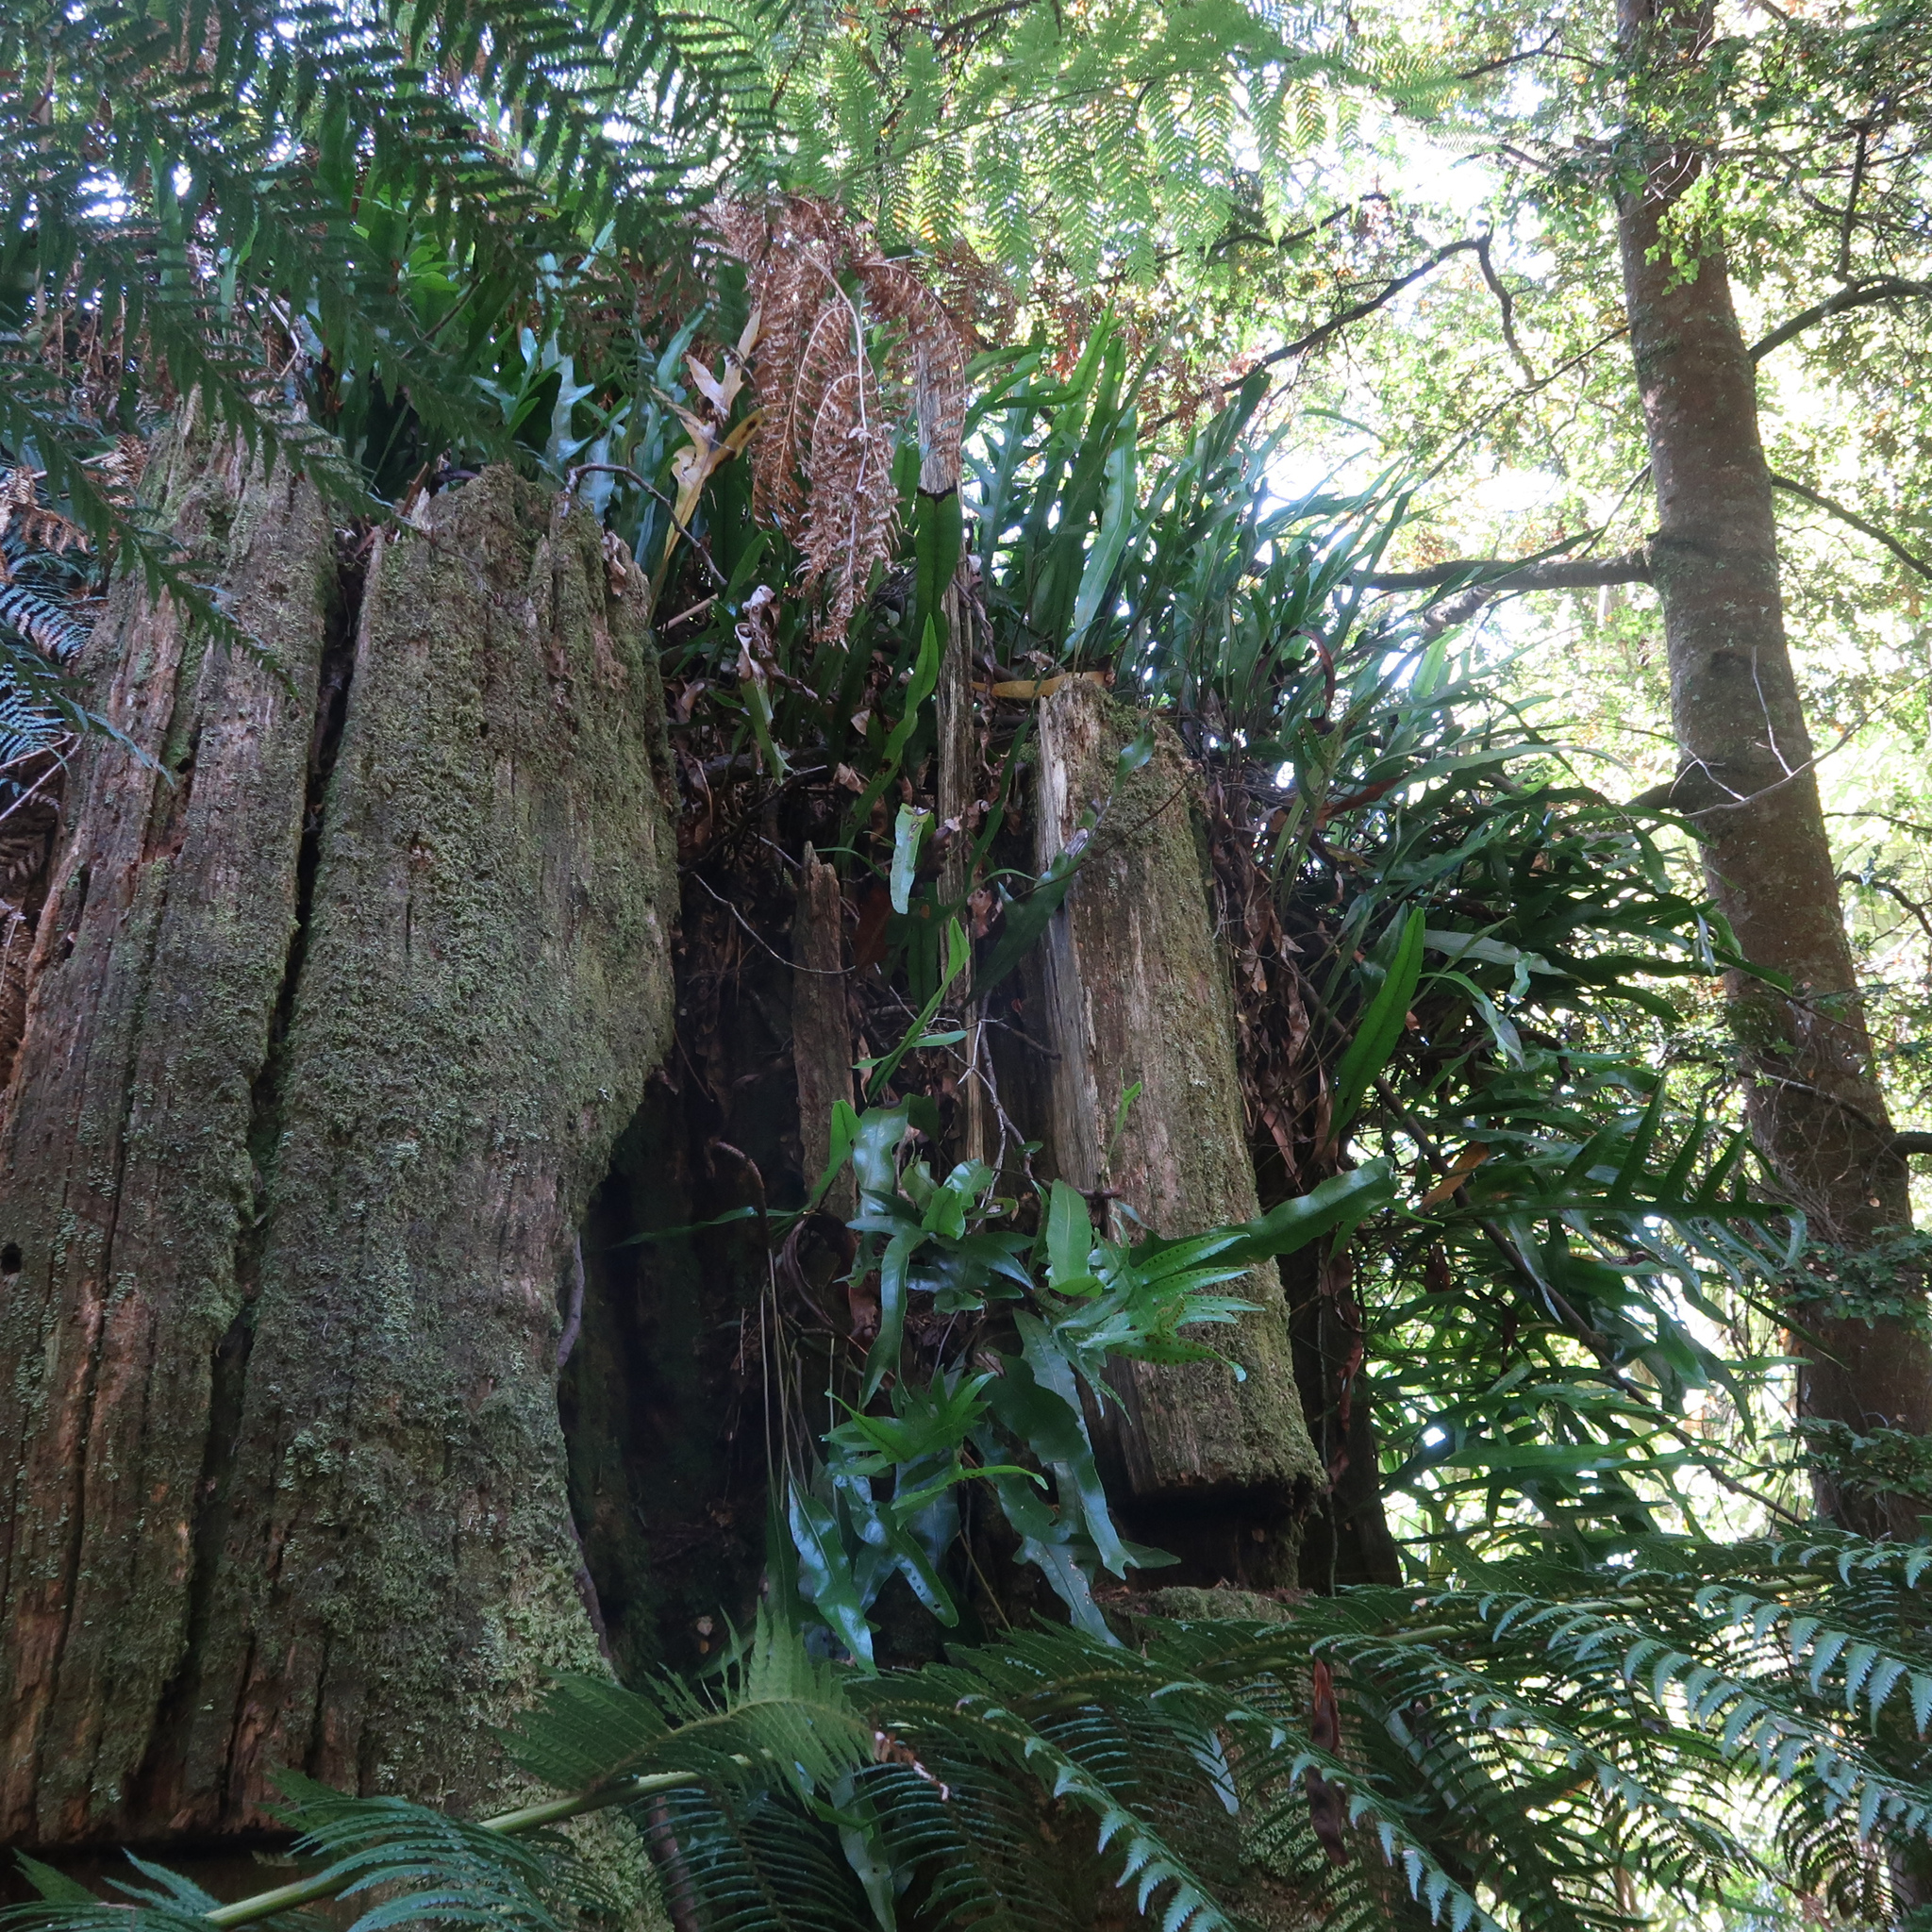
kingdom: Plantae
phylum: Tracheophyta
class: Polypodiopsida
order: Polypodiales
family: Polypodiaceae
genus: Lecanopteris
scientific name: Lecanopteris pustulata
